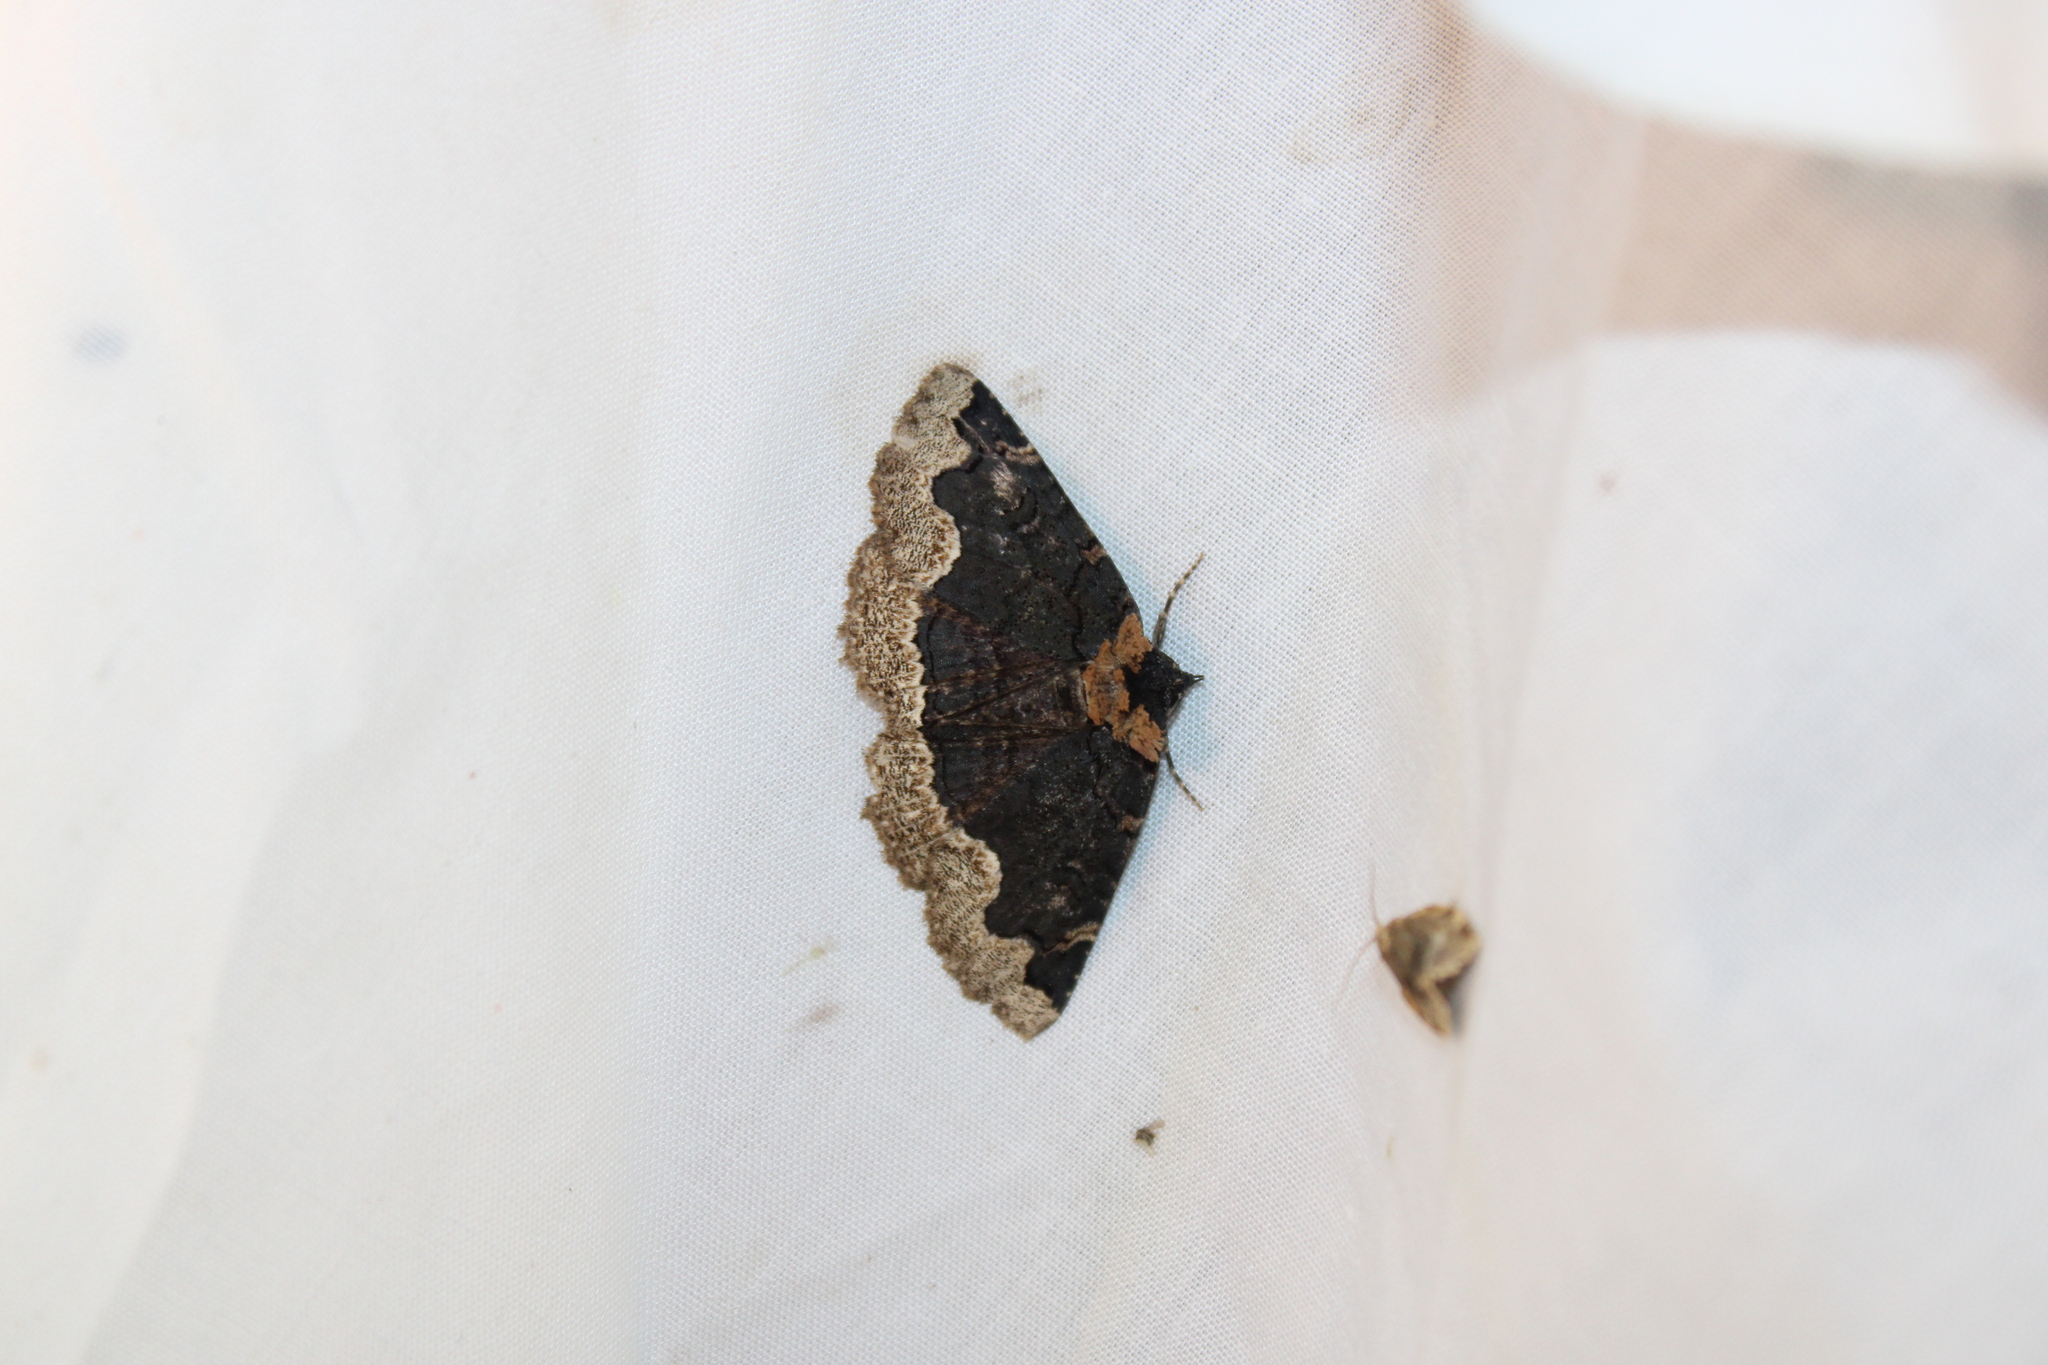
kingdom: Animalia
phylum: Arthropoda
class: Insecta
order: Lepidoptera
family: Erebidae
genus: Zale
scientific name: Zale horrida
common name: Horrid zale moth
